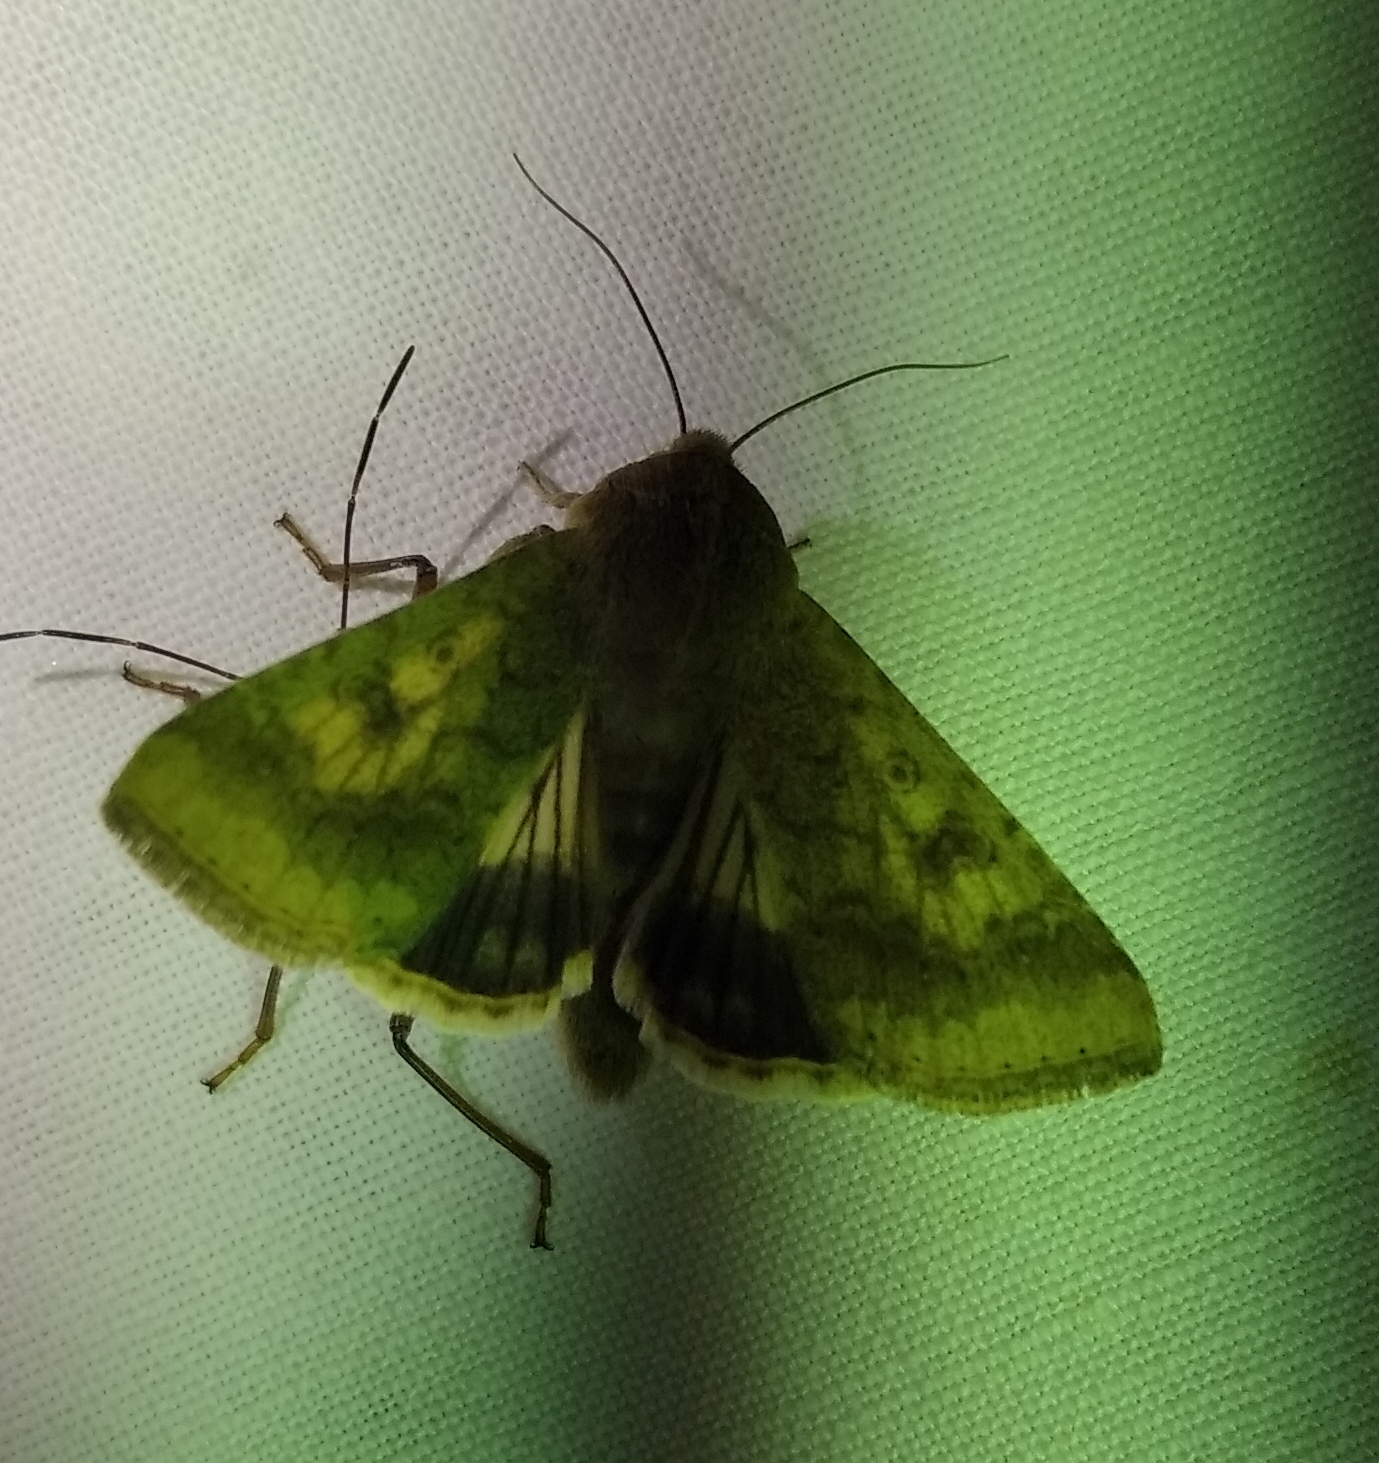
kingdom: Animalia
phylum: Arthropoda
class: Insecta
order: Lepidoptera
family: Noctuidae
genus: Helicoverpa
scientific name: Helicoverpa armigera
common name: Cotton bollworm
